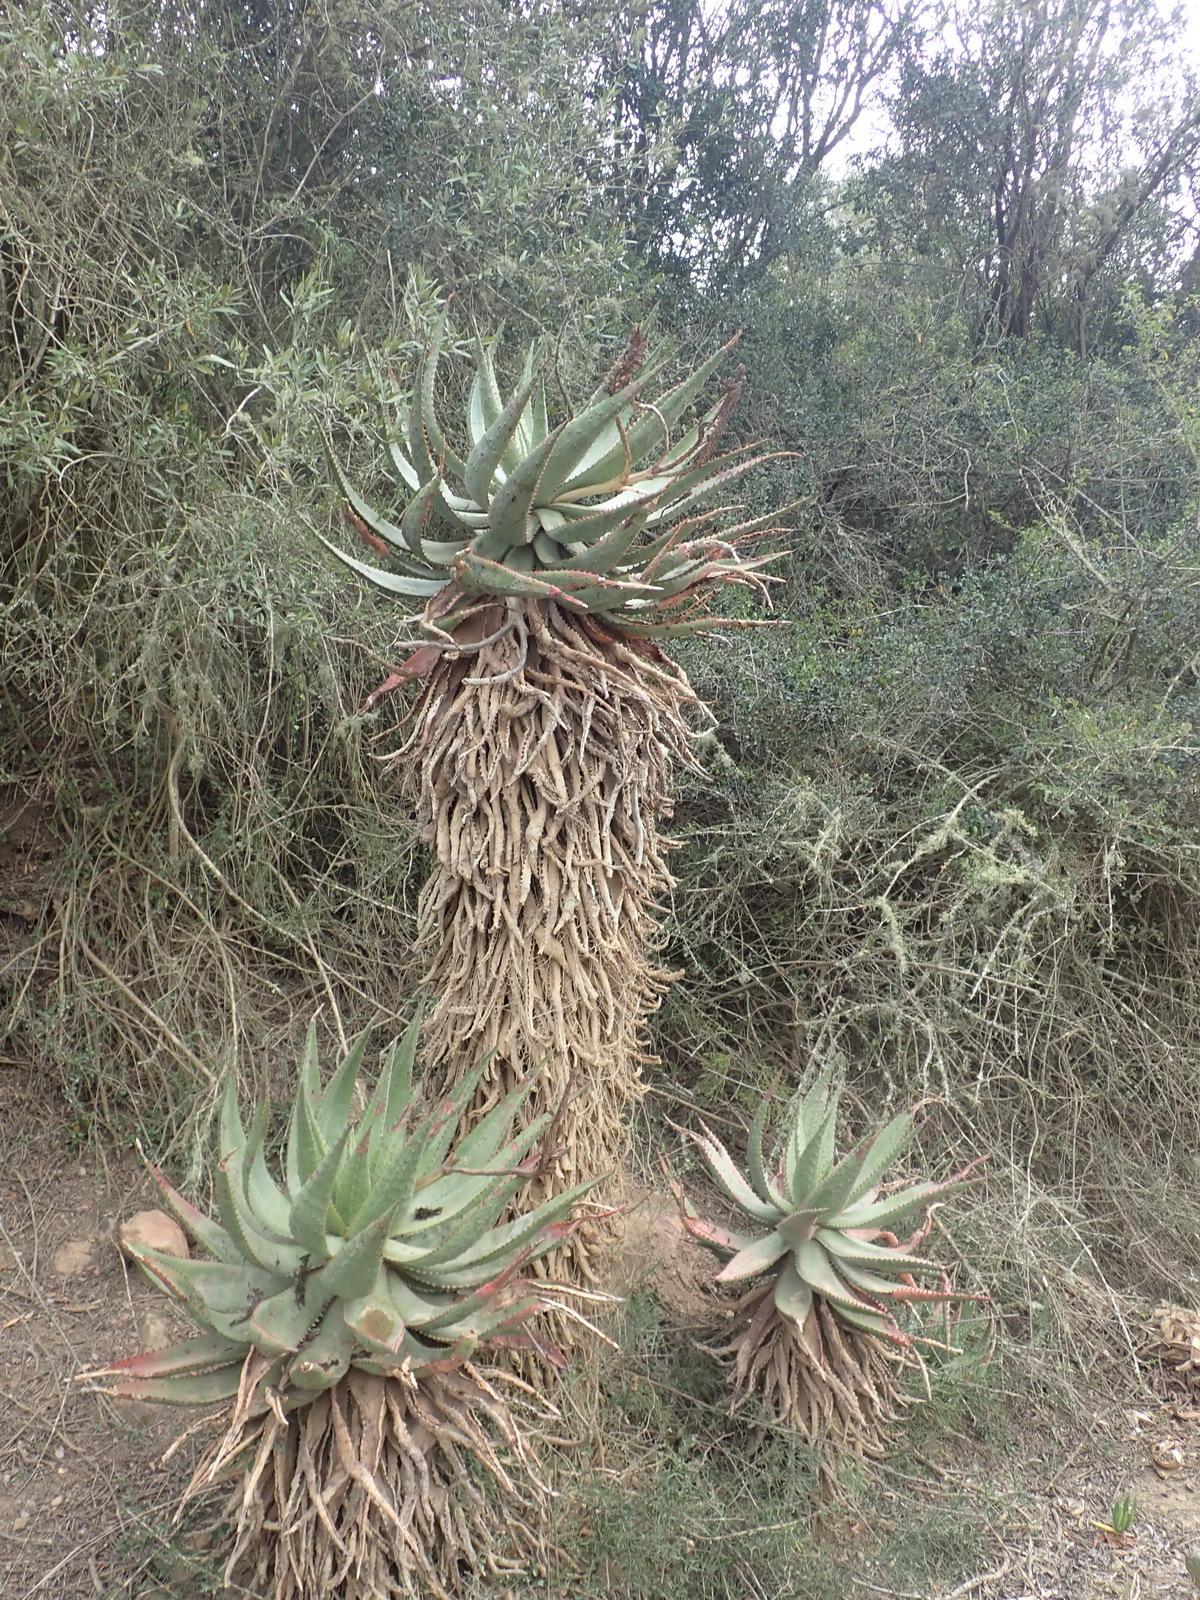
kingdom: Plantae
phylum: Tracheophyta
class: Liliopsida
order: Asparagales
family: Asphodelaceae
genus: Aloe
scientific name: Aloe ferox
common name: Bitter aloe
